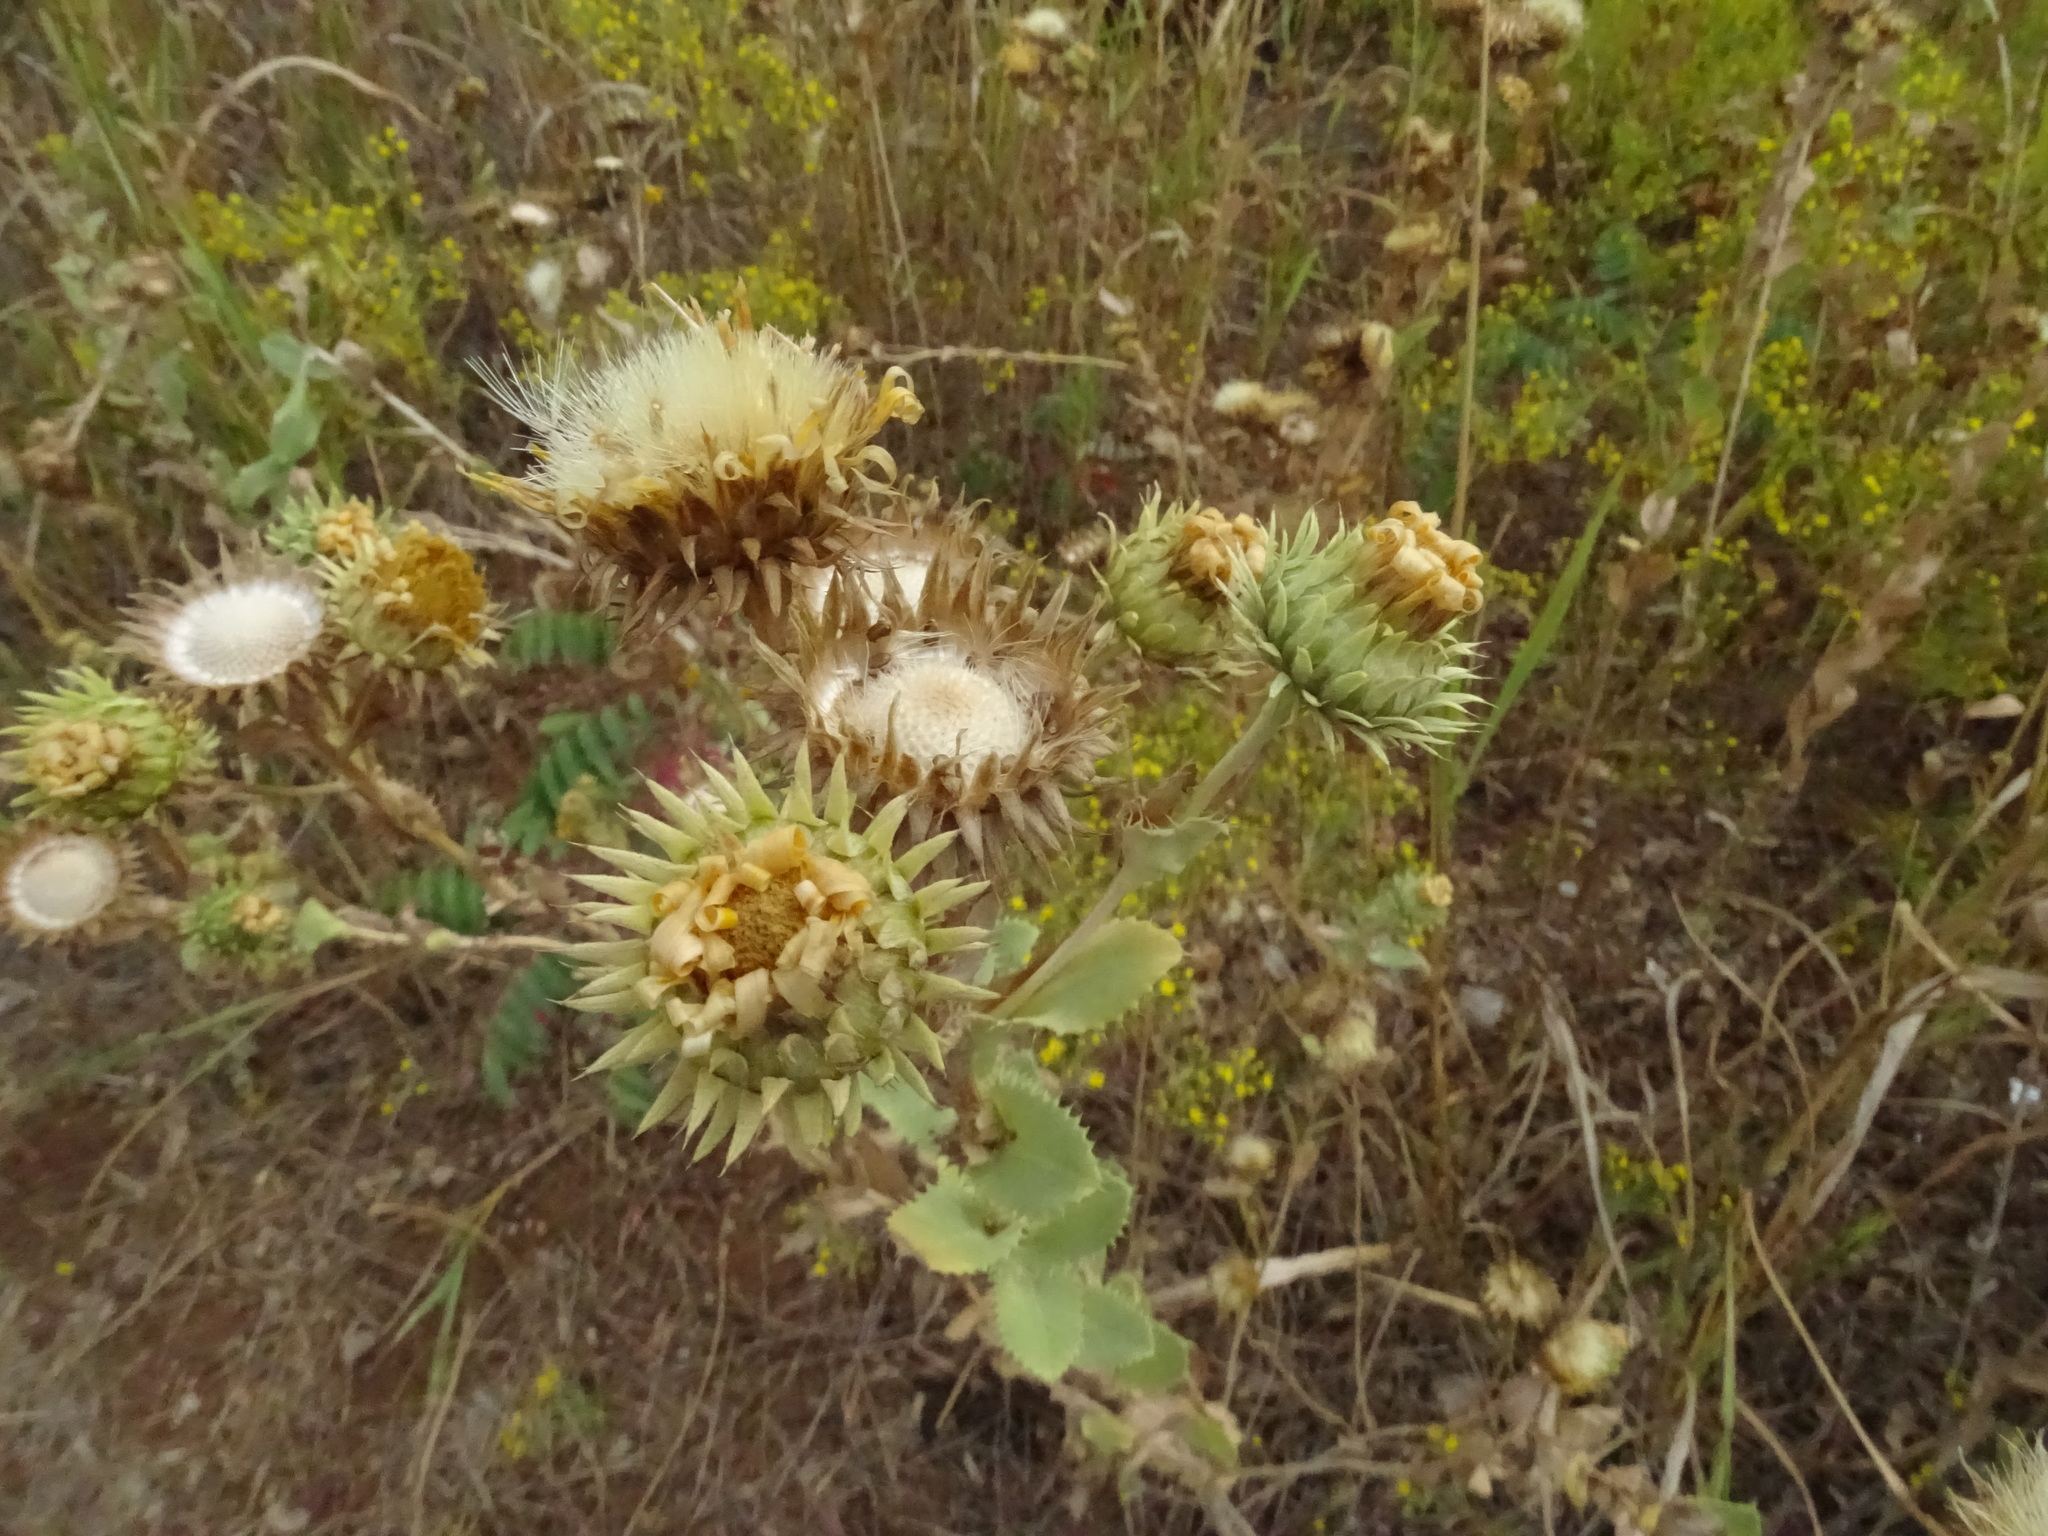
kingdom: Plantae
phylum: Tracheophyta
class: Magnoliopsida
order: Asterales
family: Asteraceae
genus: Grindelia
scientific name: Grindelia ciliata
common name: Goldenweed
